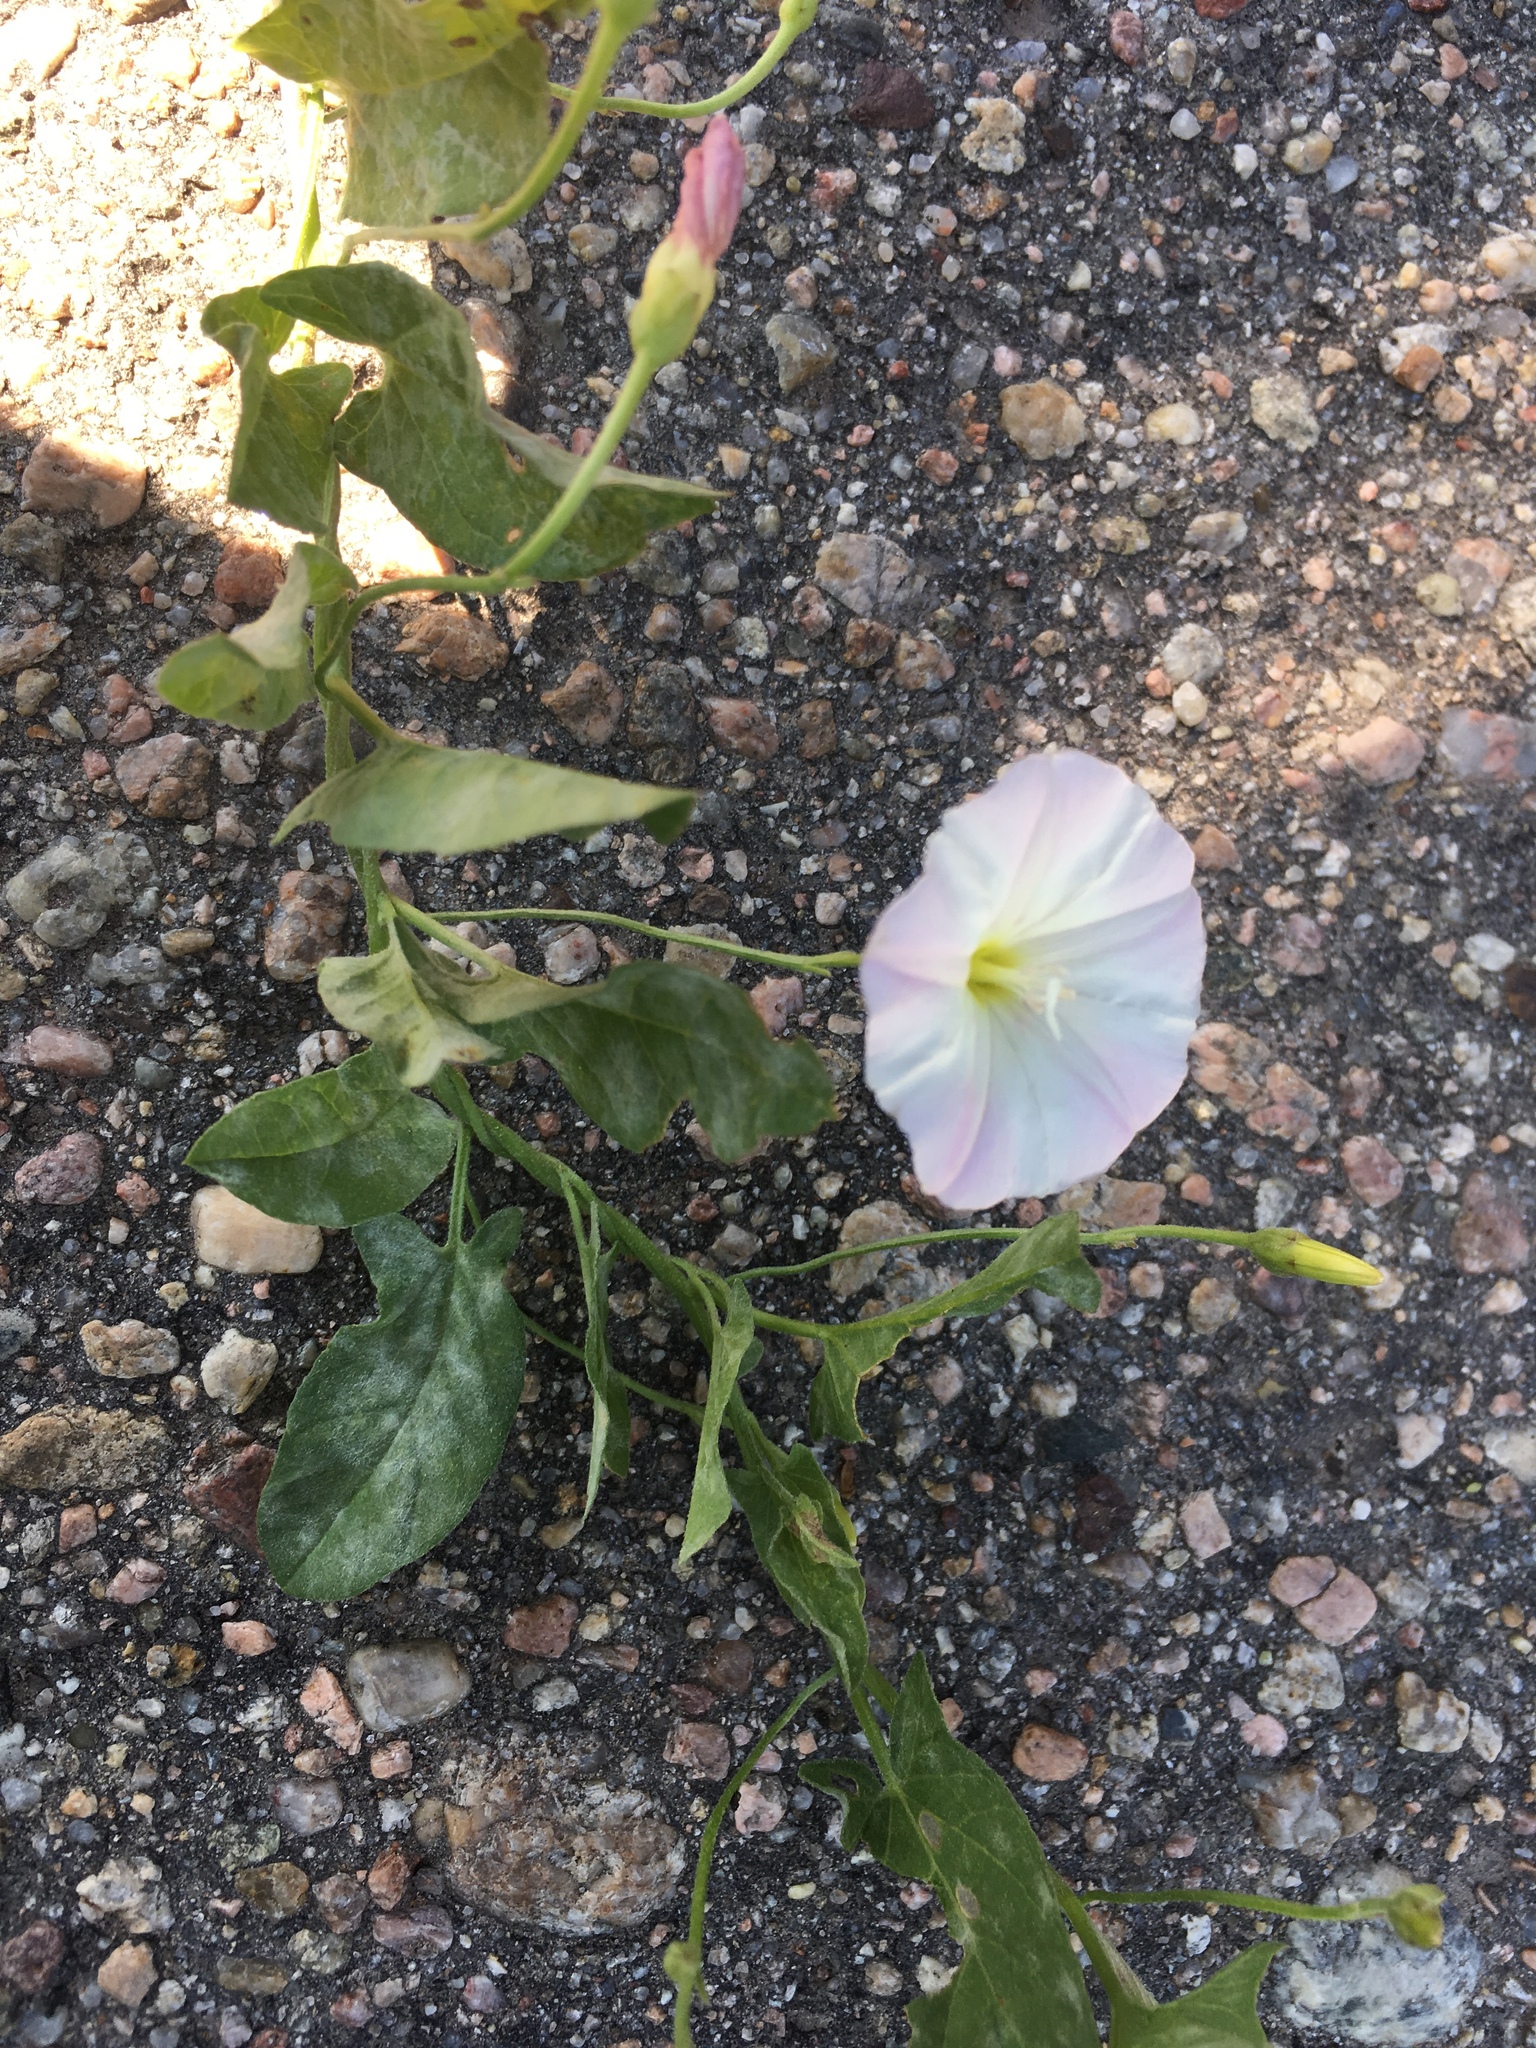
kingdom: Plantae
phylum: Tracheophyta
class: Magnoliopsida
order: Solanales
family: Convolvulaceae
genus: Convolvulus
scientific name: Convolvulus arvensis
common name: Field bindweed
